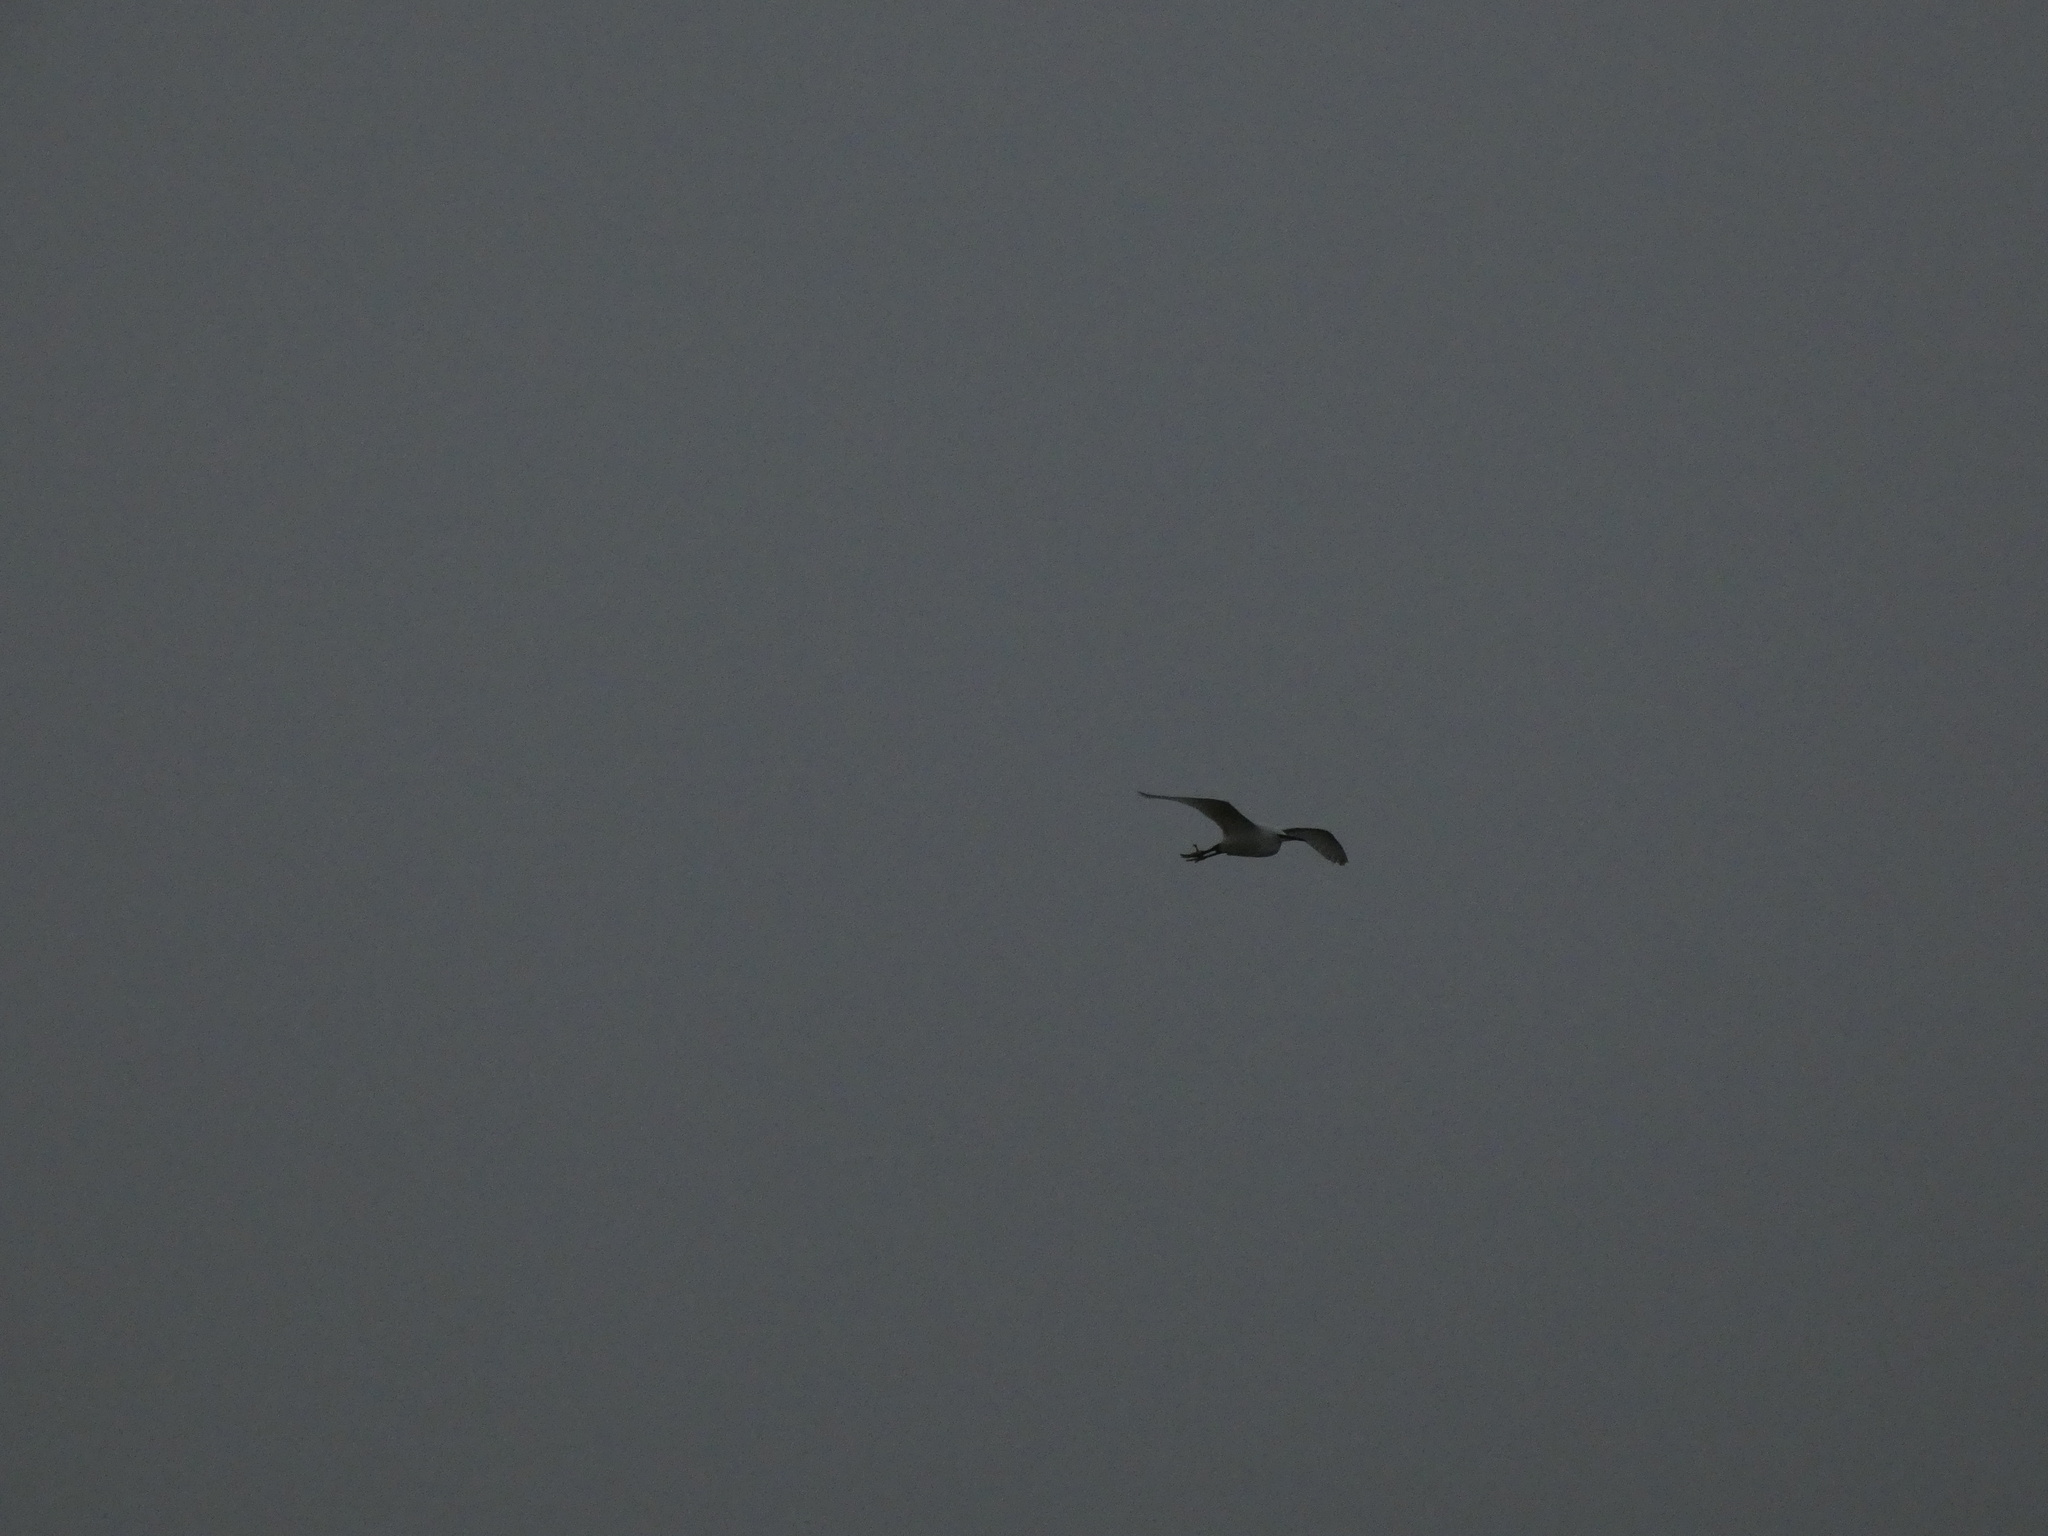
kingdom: Animalia
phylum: Chordata
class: Aves
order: Pelecaniformes
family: Ardeidae
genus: Egretta
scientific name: Egretta garzetta
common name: Little egret
